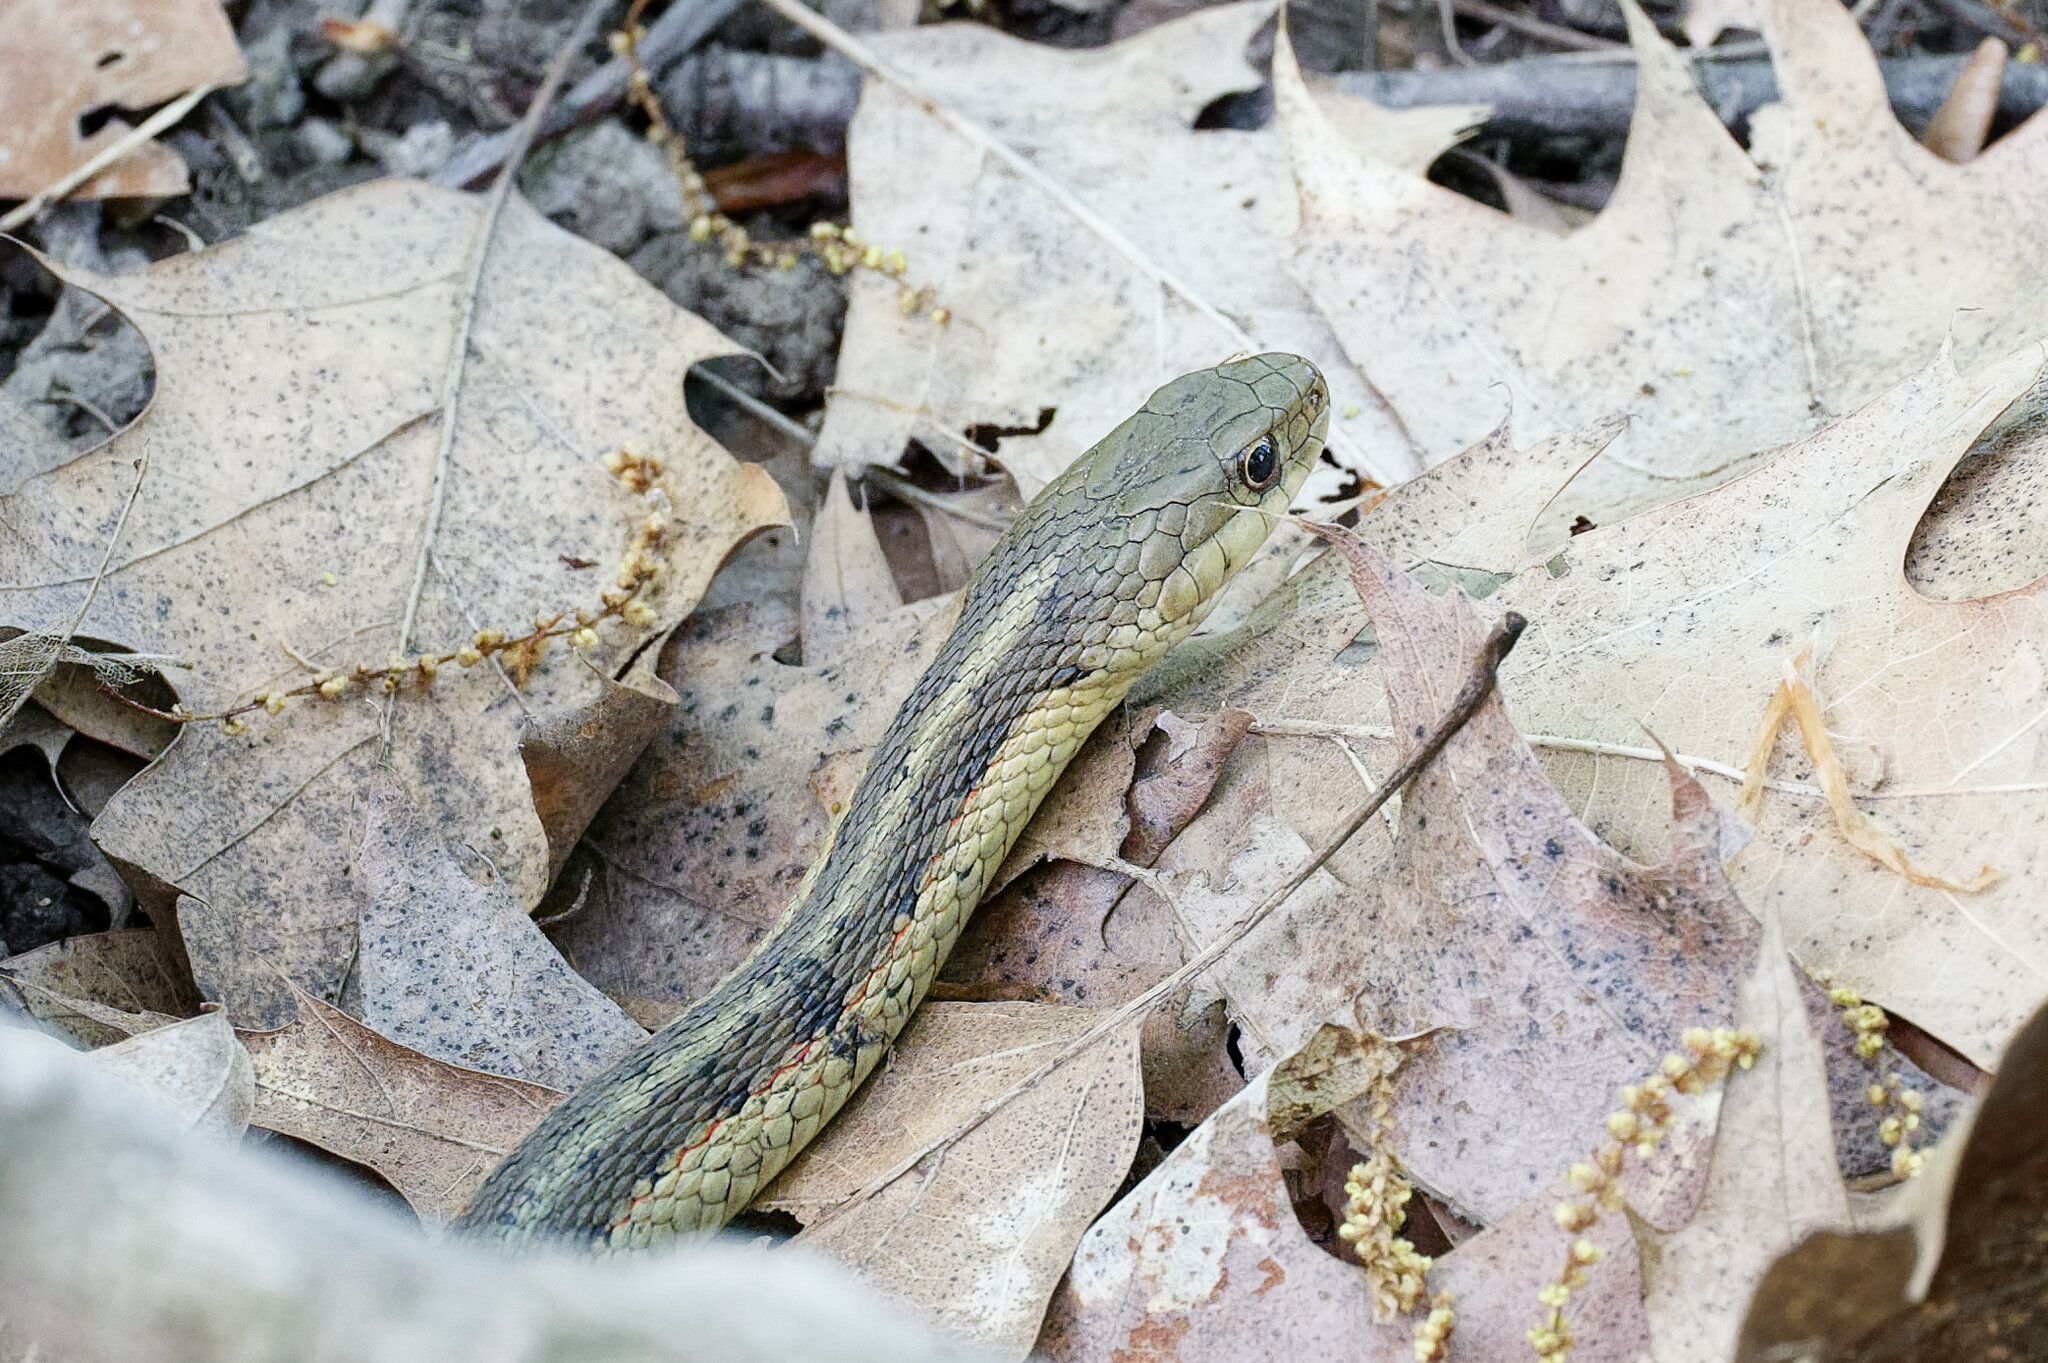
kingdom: Animalia
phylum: Chordata
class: Squamata
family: Colubridae
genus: Thamnophis
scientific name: Thamnophis sirtalis
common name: Common garter snake
